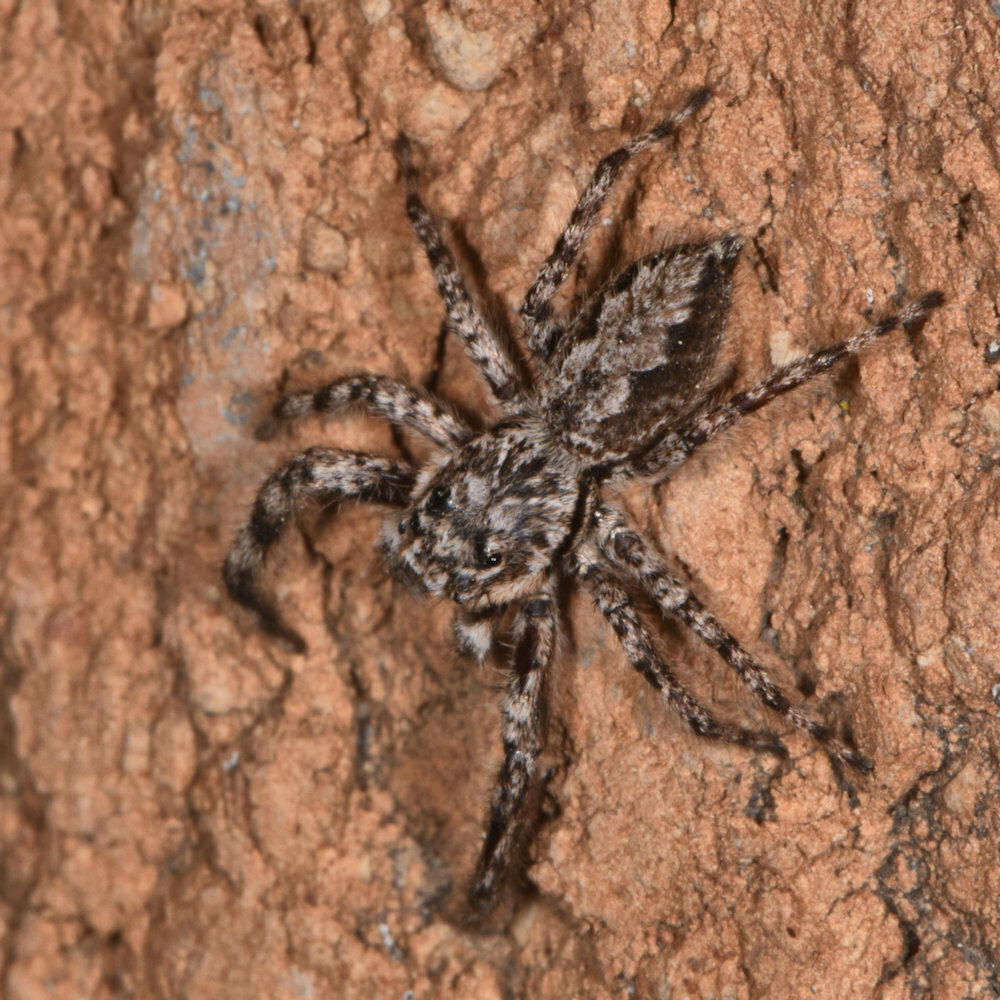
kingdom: Animalia
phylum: Arthropoda
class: Arachnida
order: Araneae
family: Salticidae
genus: Platycryptus
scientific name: Platycryptus undatus
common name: Tan jumping spider
